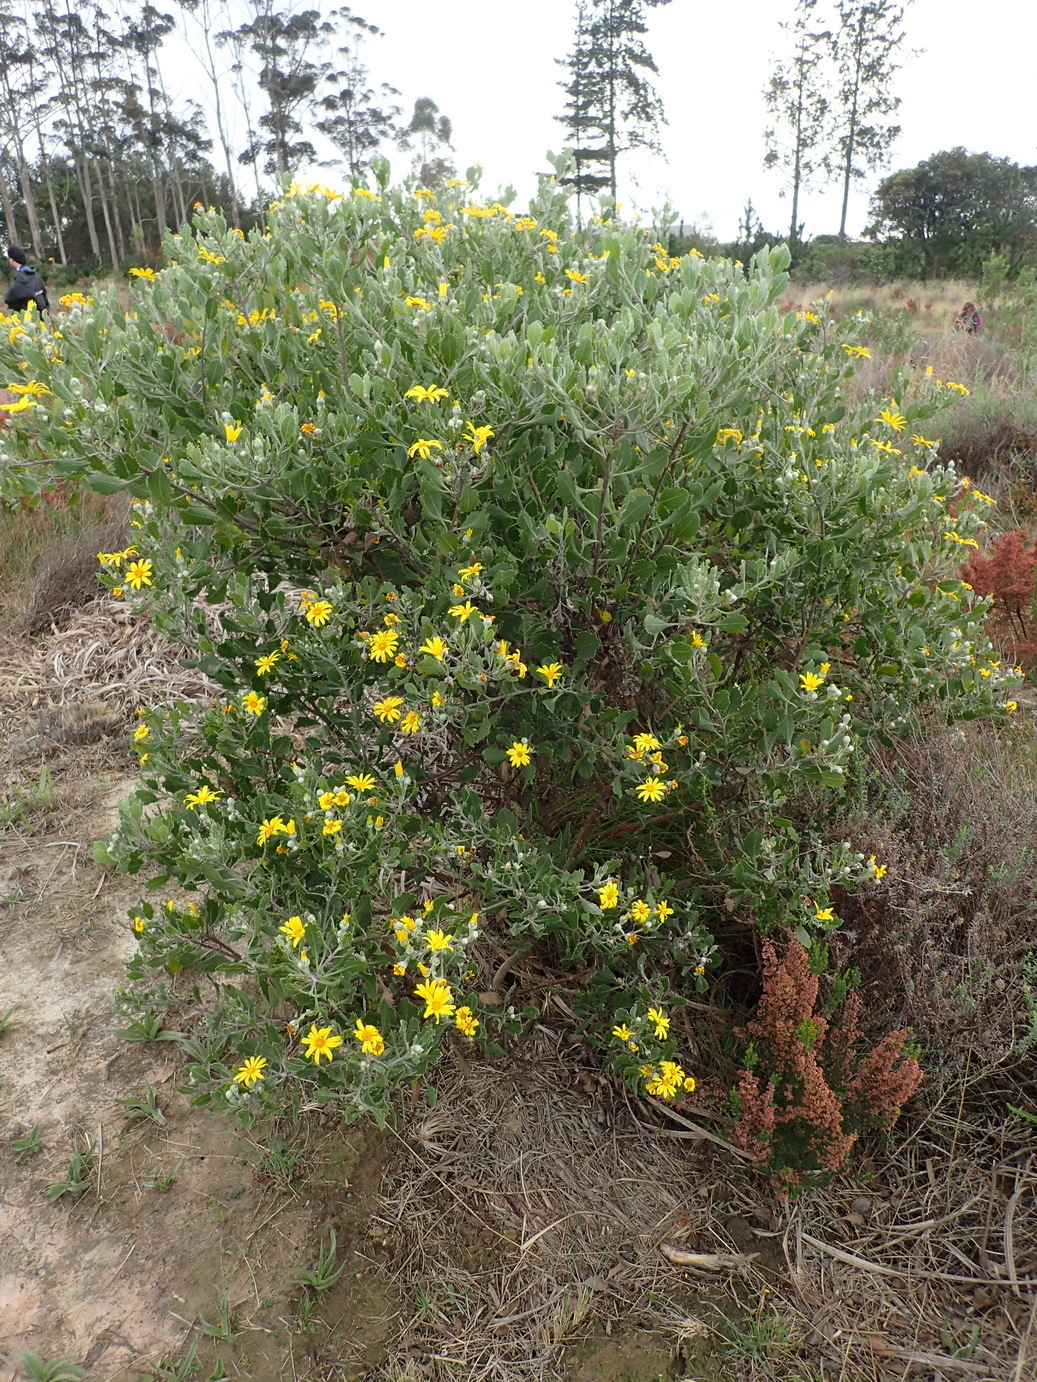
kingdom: Plantae
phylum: Tracheophyta
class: Magnoliopsida
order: Asterales
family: Asteraceae
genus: Osteospermum
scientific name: Osteospermum moniliferum
